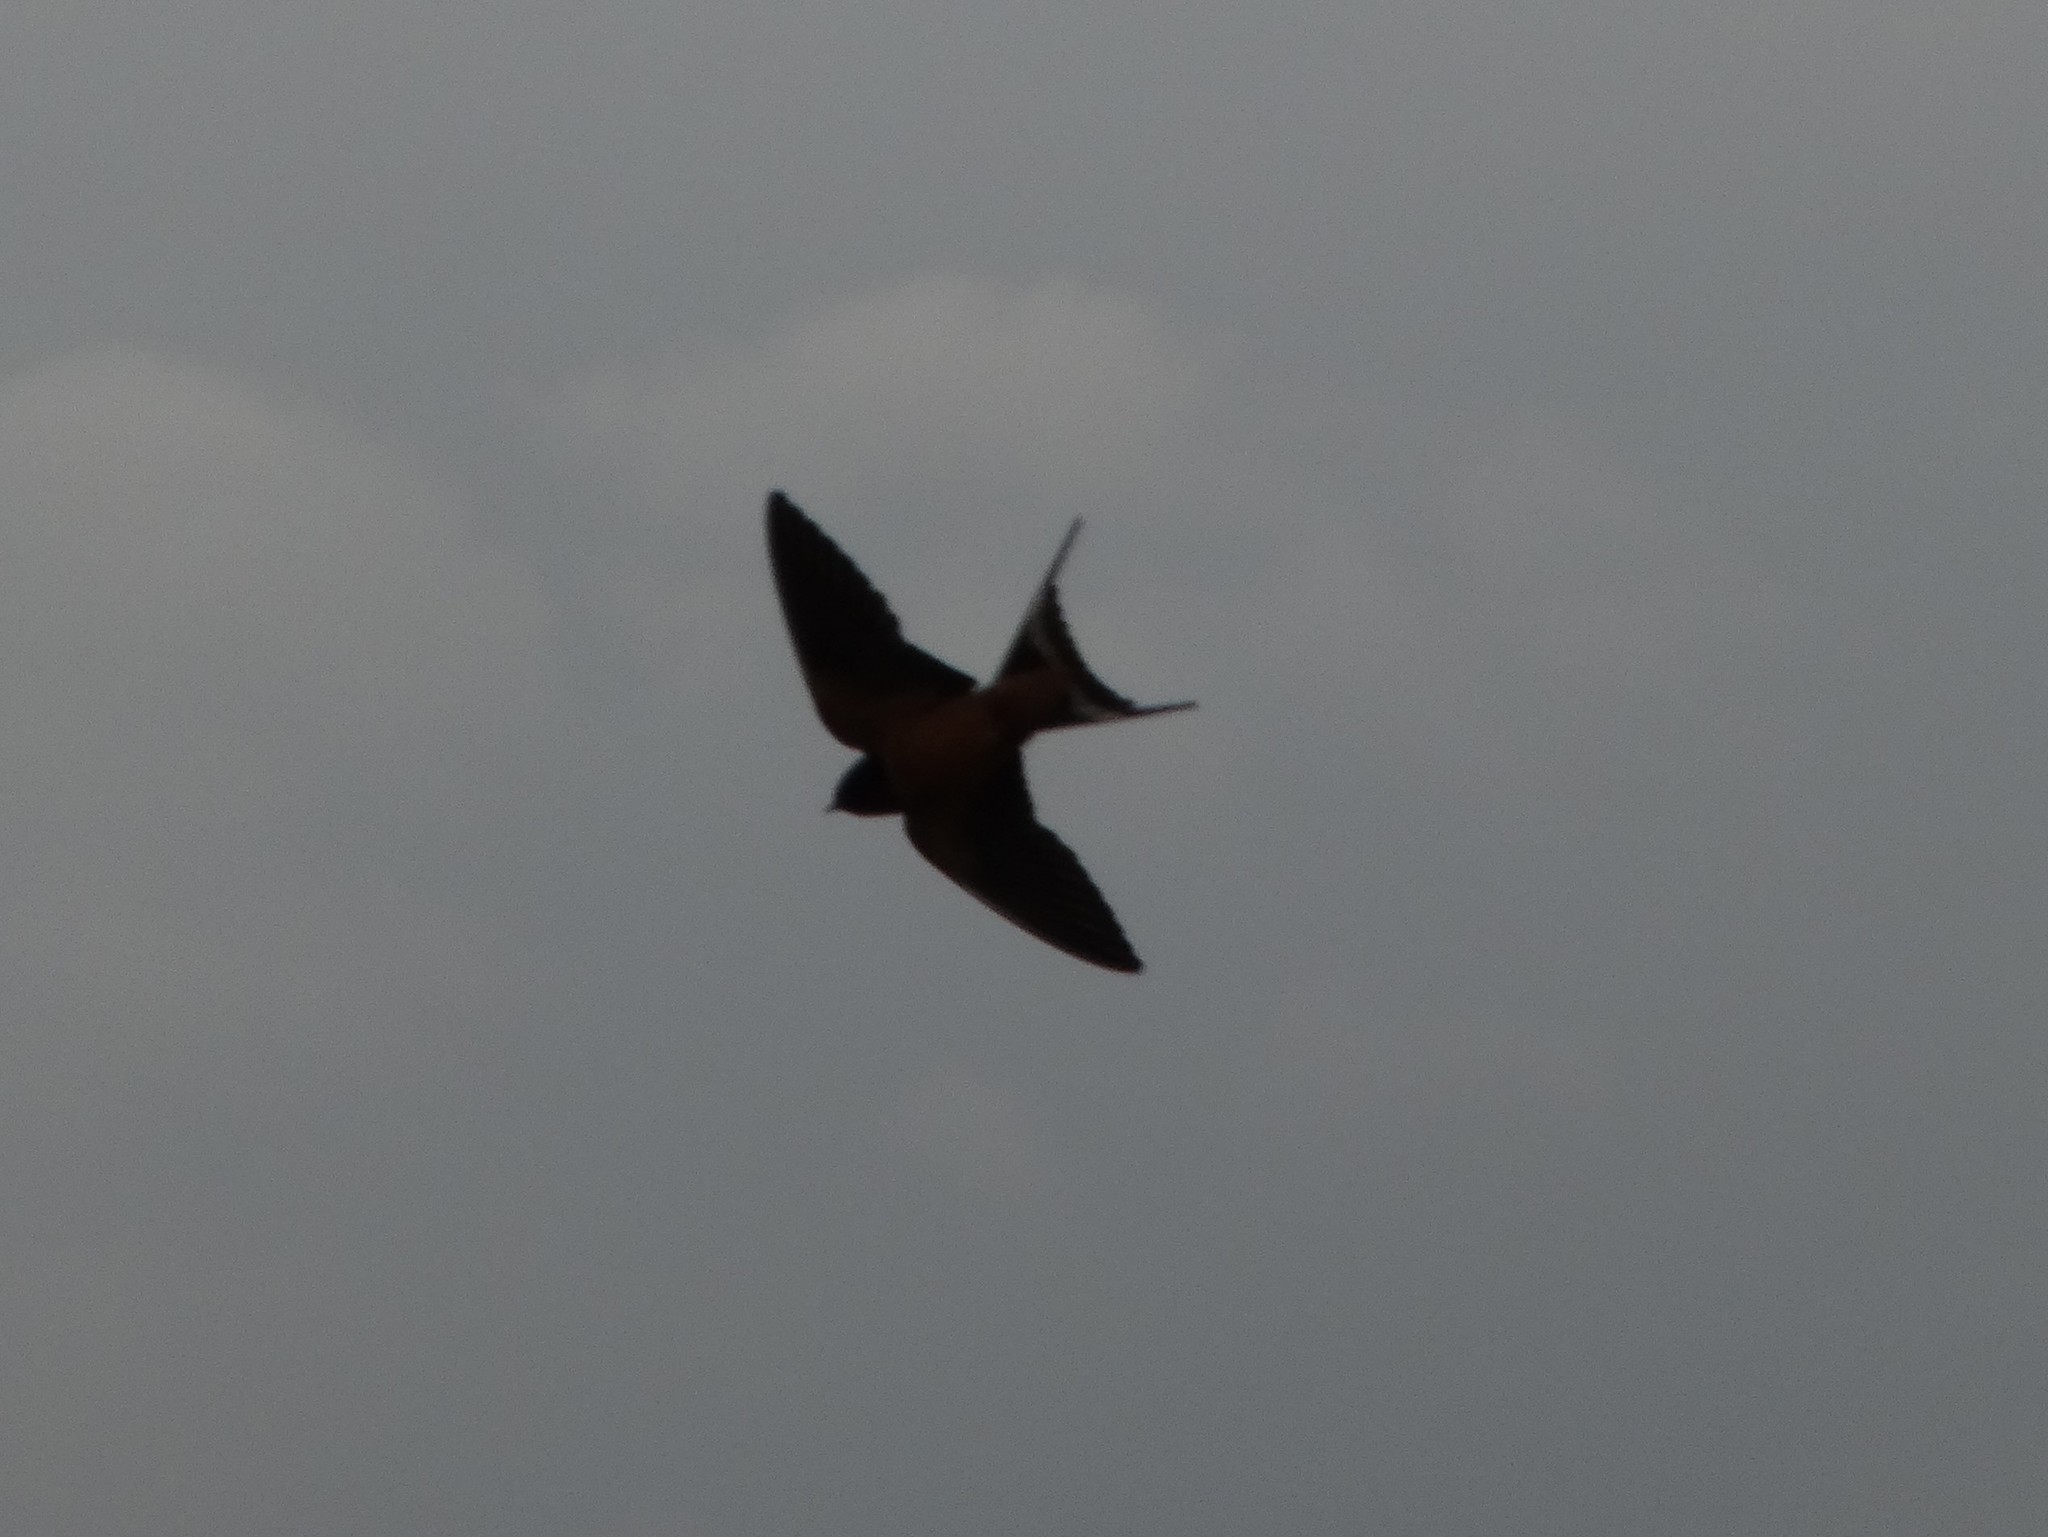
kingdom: Animalia
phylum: Chordata
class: Aves
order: Passeriformes
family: Hirundinidae
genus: Hirundo
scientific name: Hirundo rustica
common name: Barn swallow
